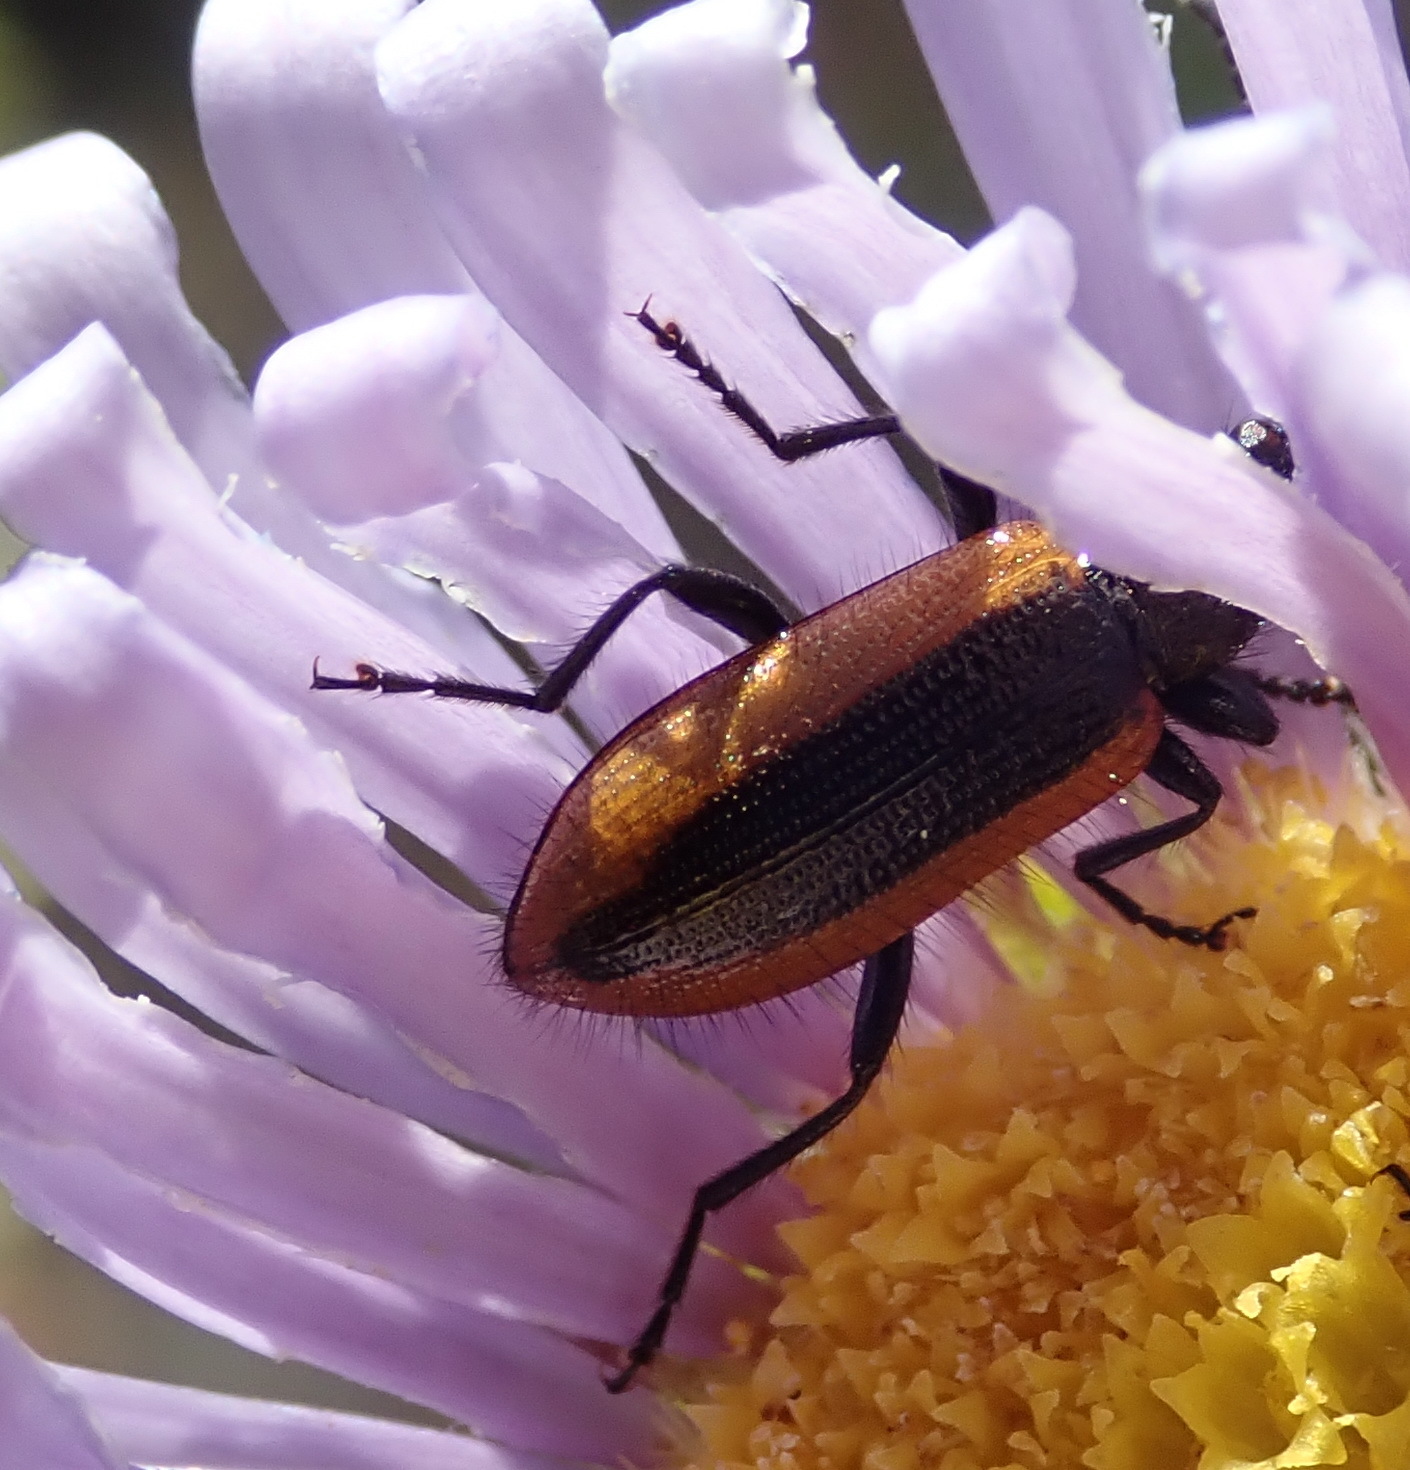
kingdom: Animalia
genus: Neoeutrapela
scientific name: Neoeutrapela
